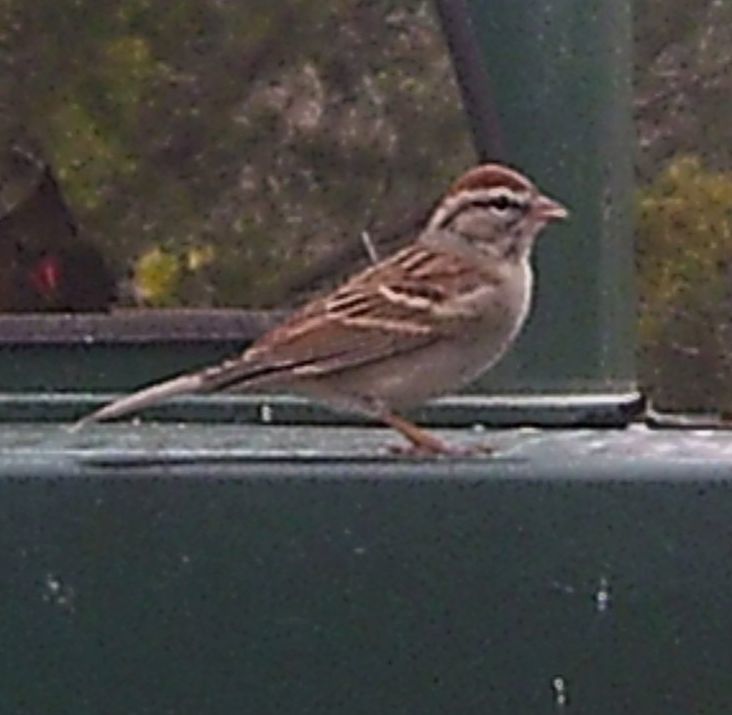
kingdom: Animalia
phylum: Chordata
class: Aves
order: Passeriformes
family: Passerellidae
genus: Spizella
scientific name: Spizella passerina
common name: Chipping sparrow
